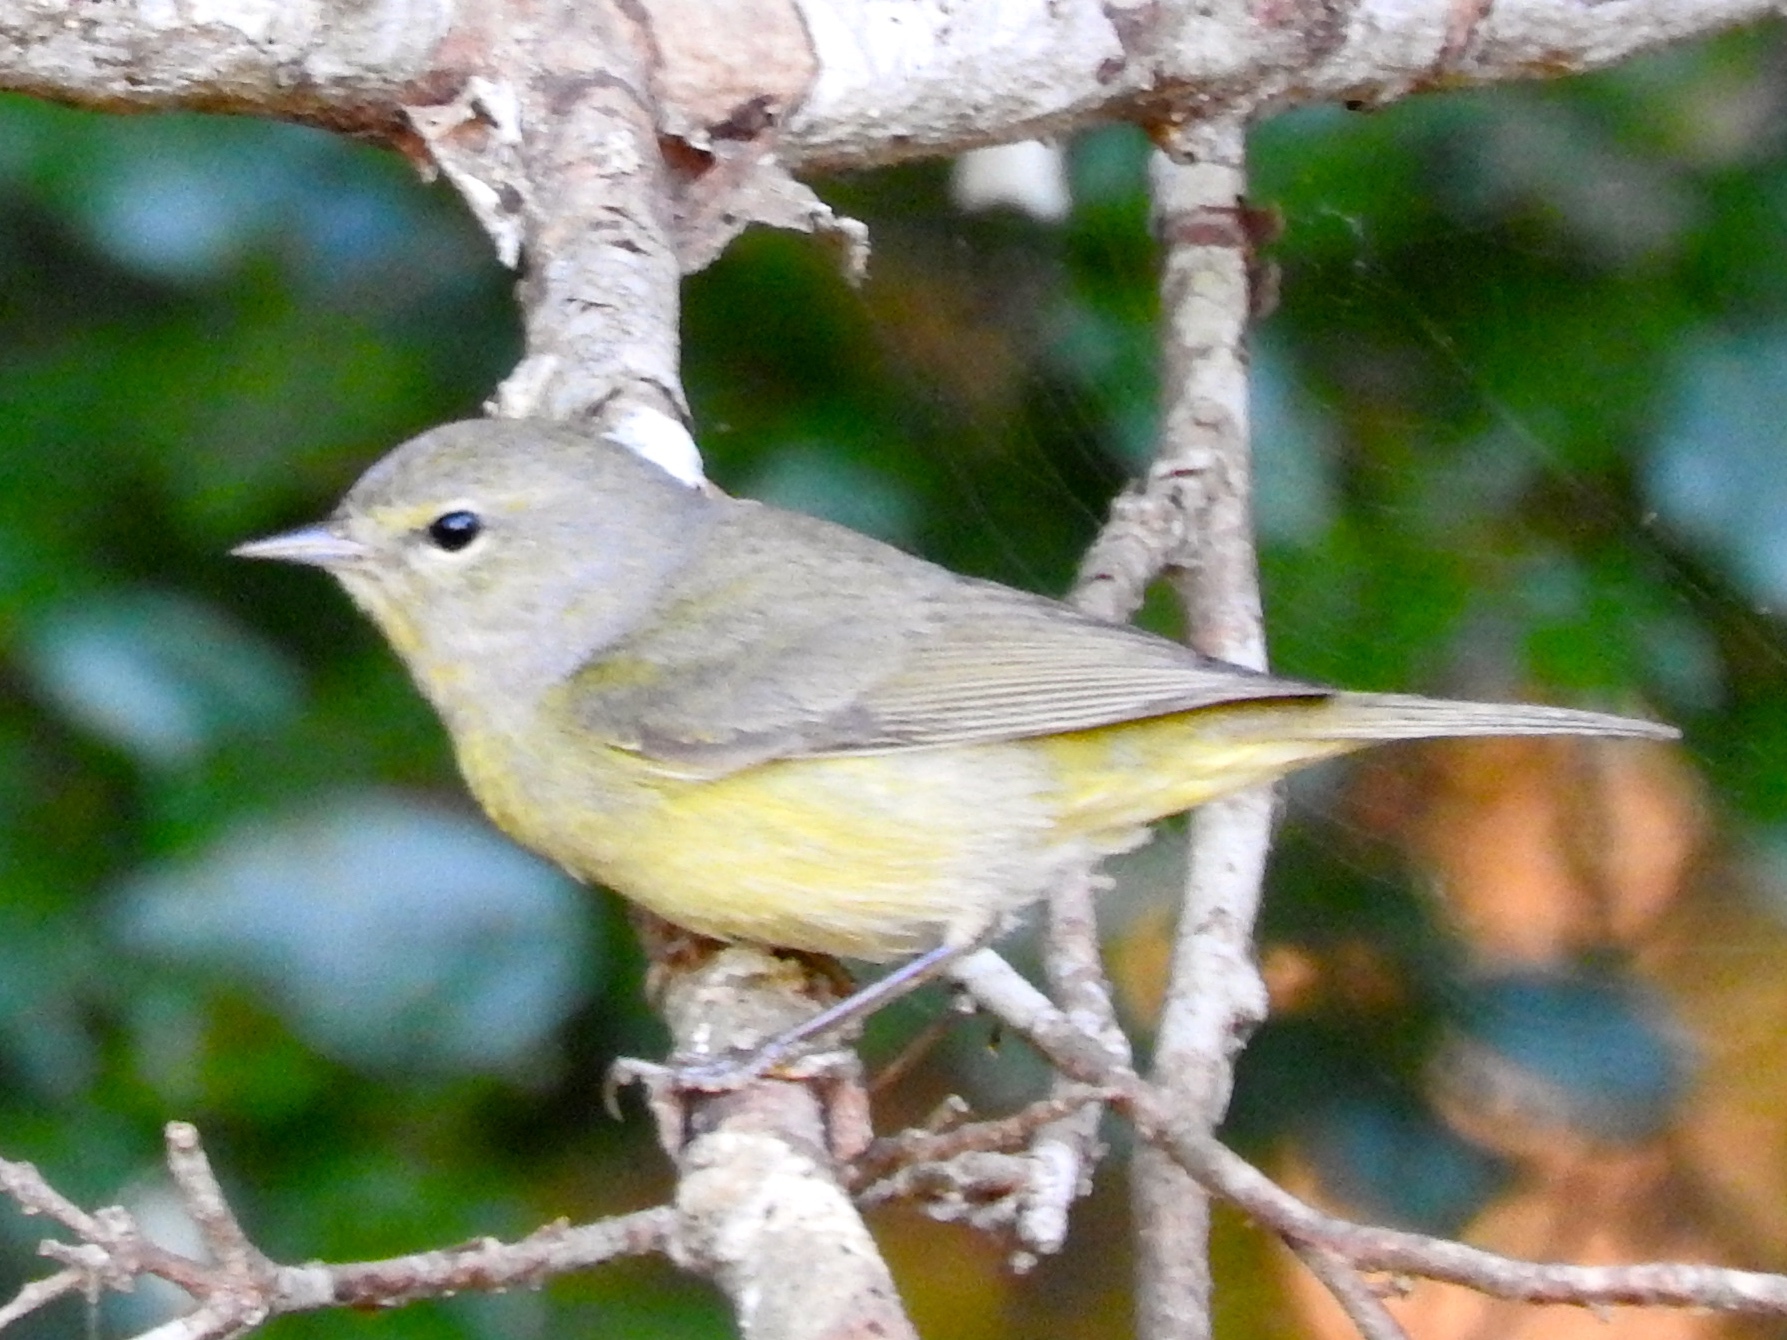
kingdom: Animalia
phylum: Chordata
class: Aves
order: Passeriformes
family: Parulidae
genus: Leiothlypis
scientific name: Leiothlypis celata
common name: Orange-crowned warbler
